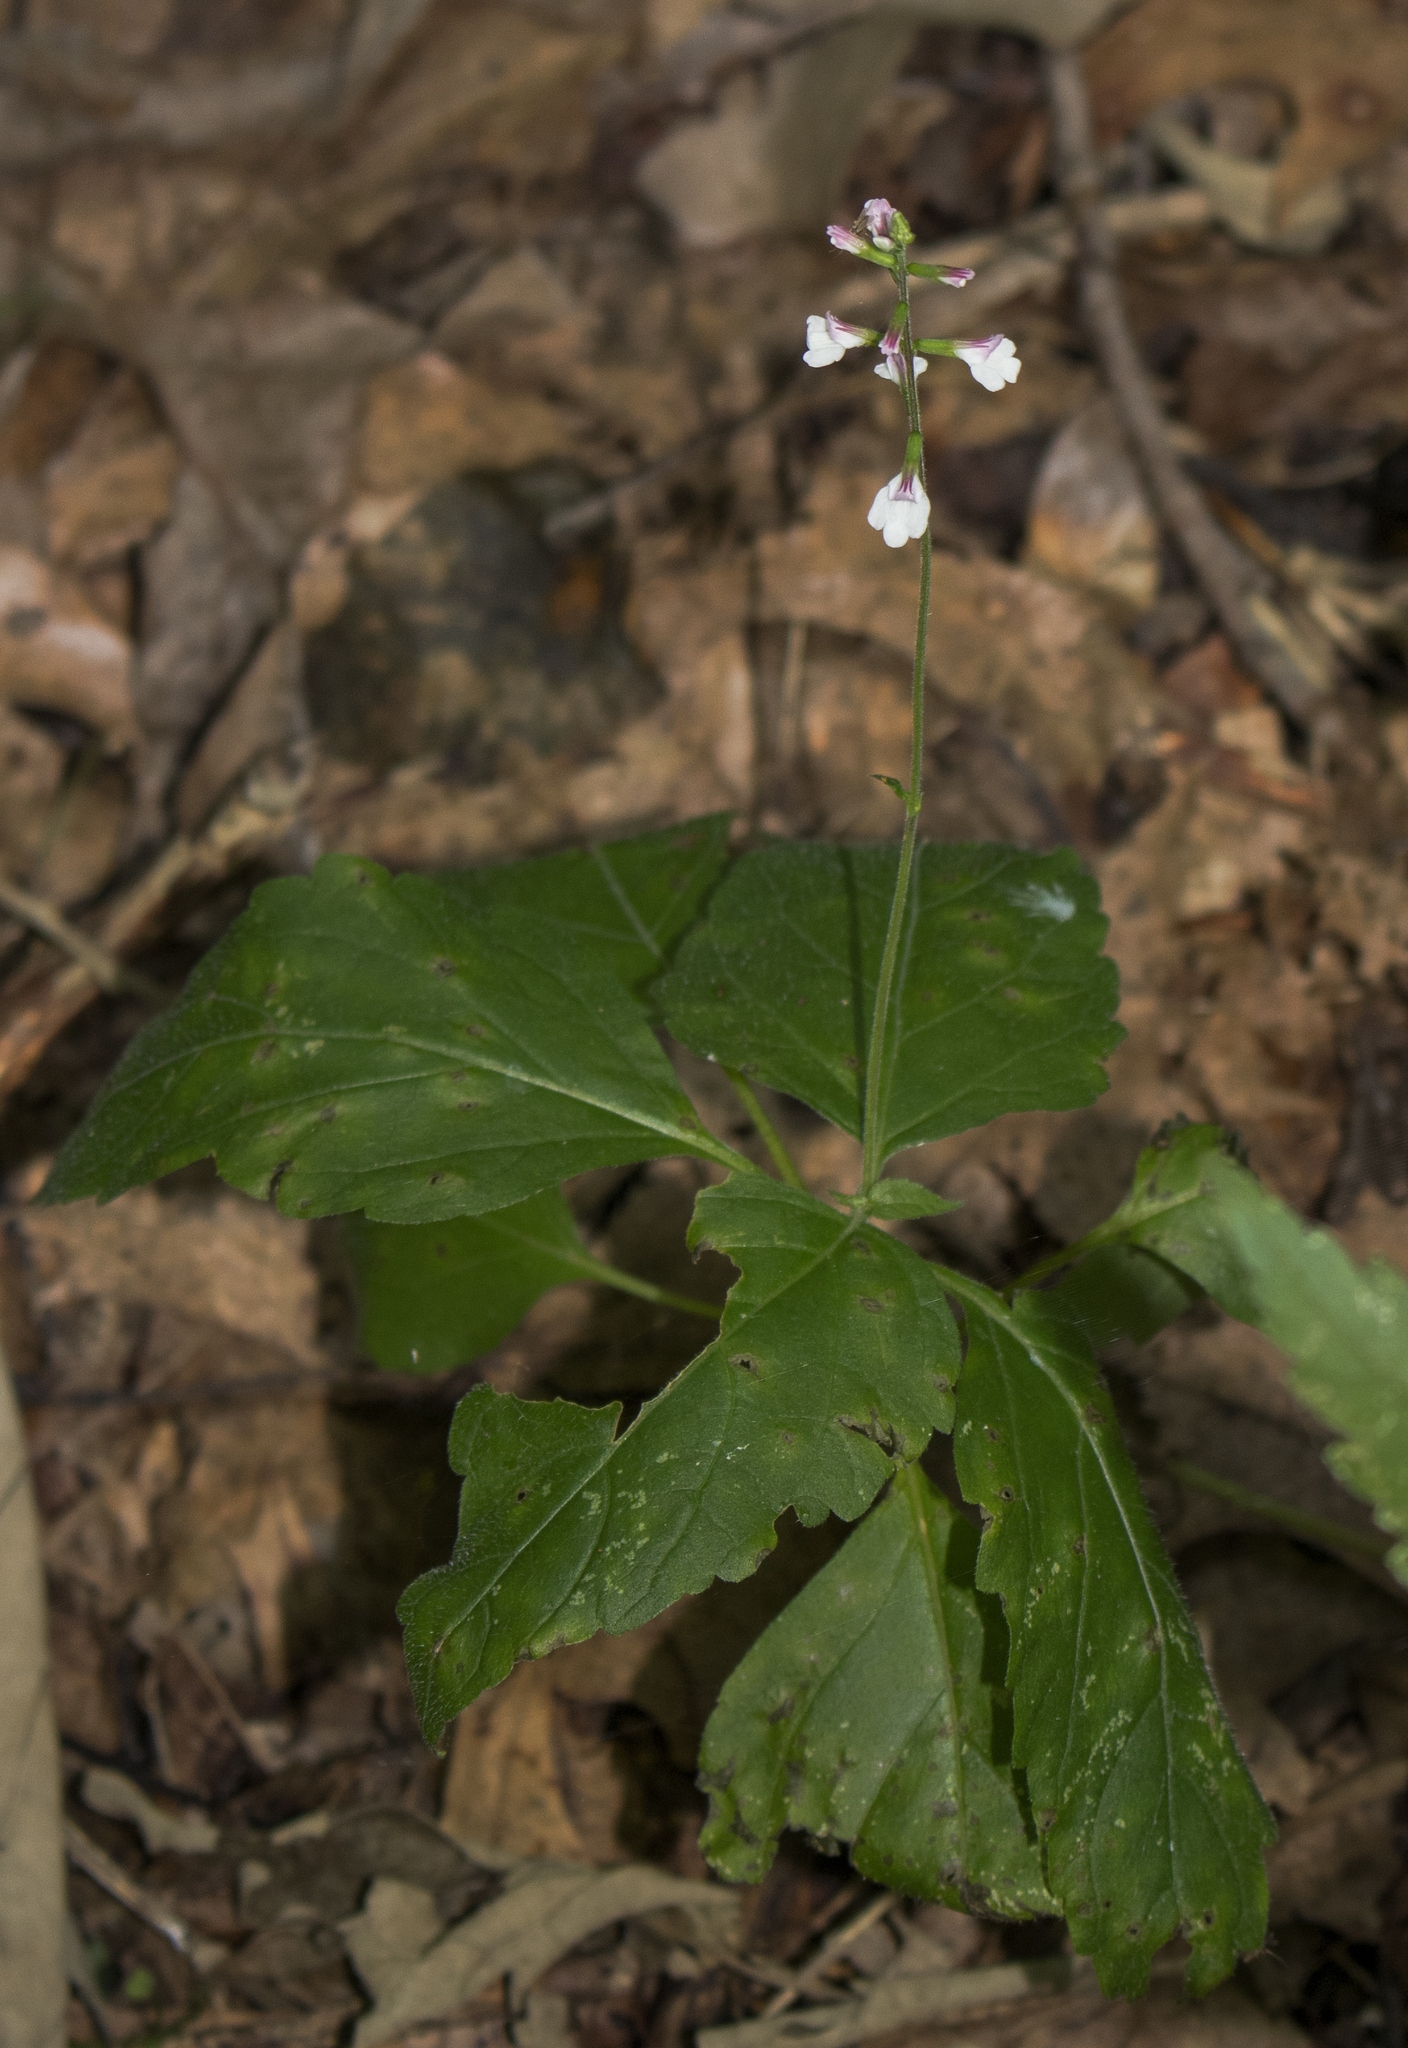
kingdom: Plantae
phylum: Tracheophyta
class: Magnoliopsida
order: Lamiales
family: Phrymaceae
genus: Phryma
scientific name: Phryma leptostachya
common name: American lopseed
